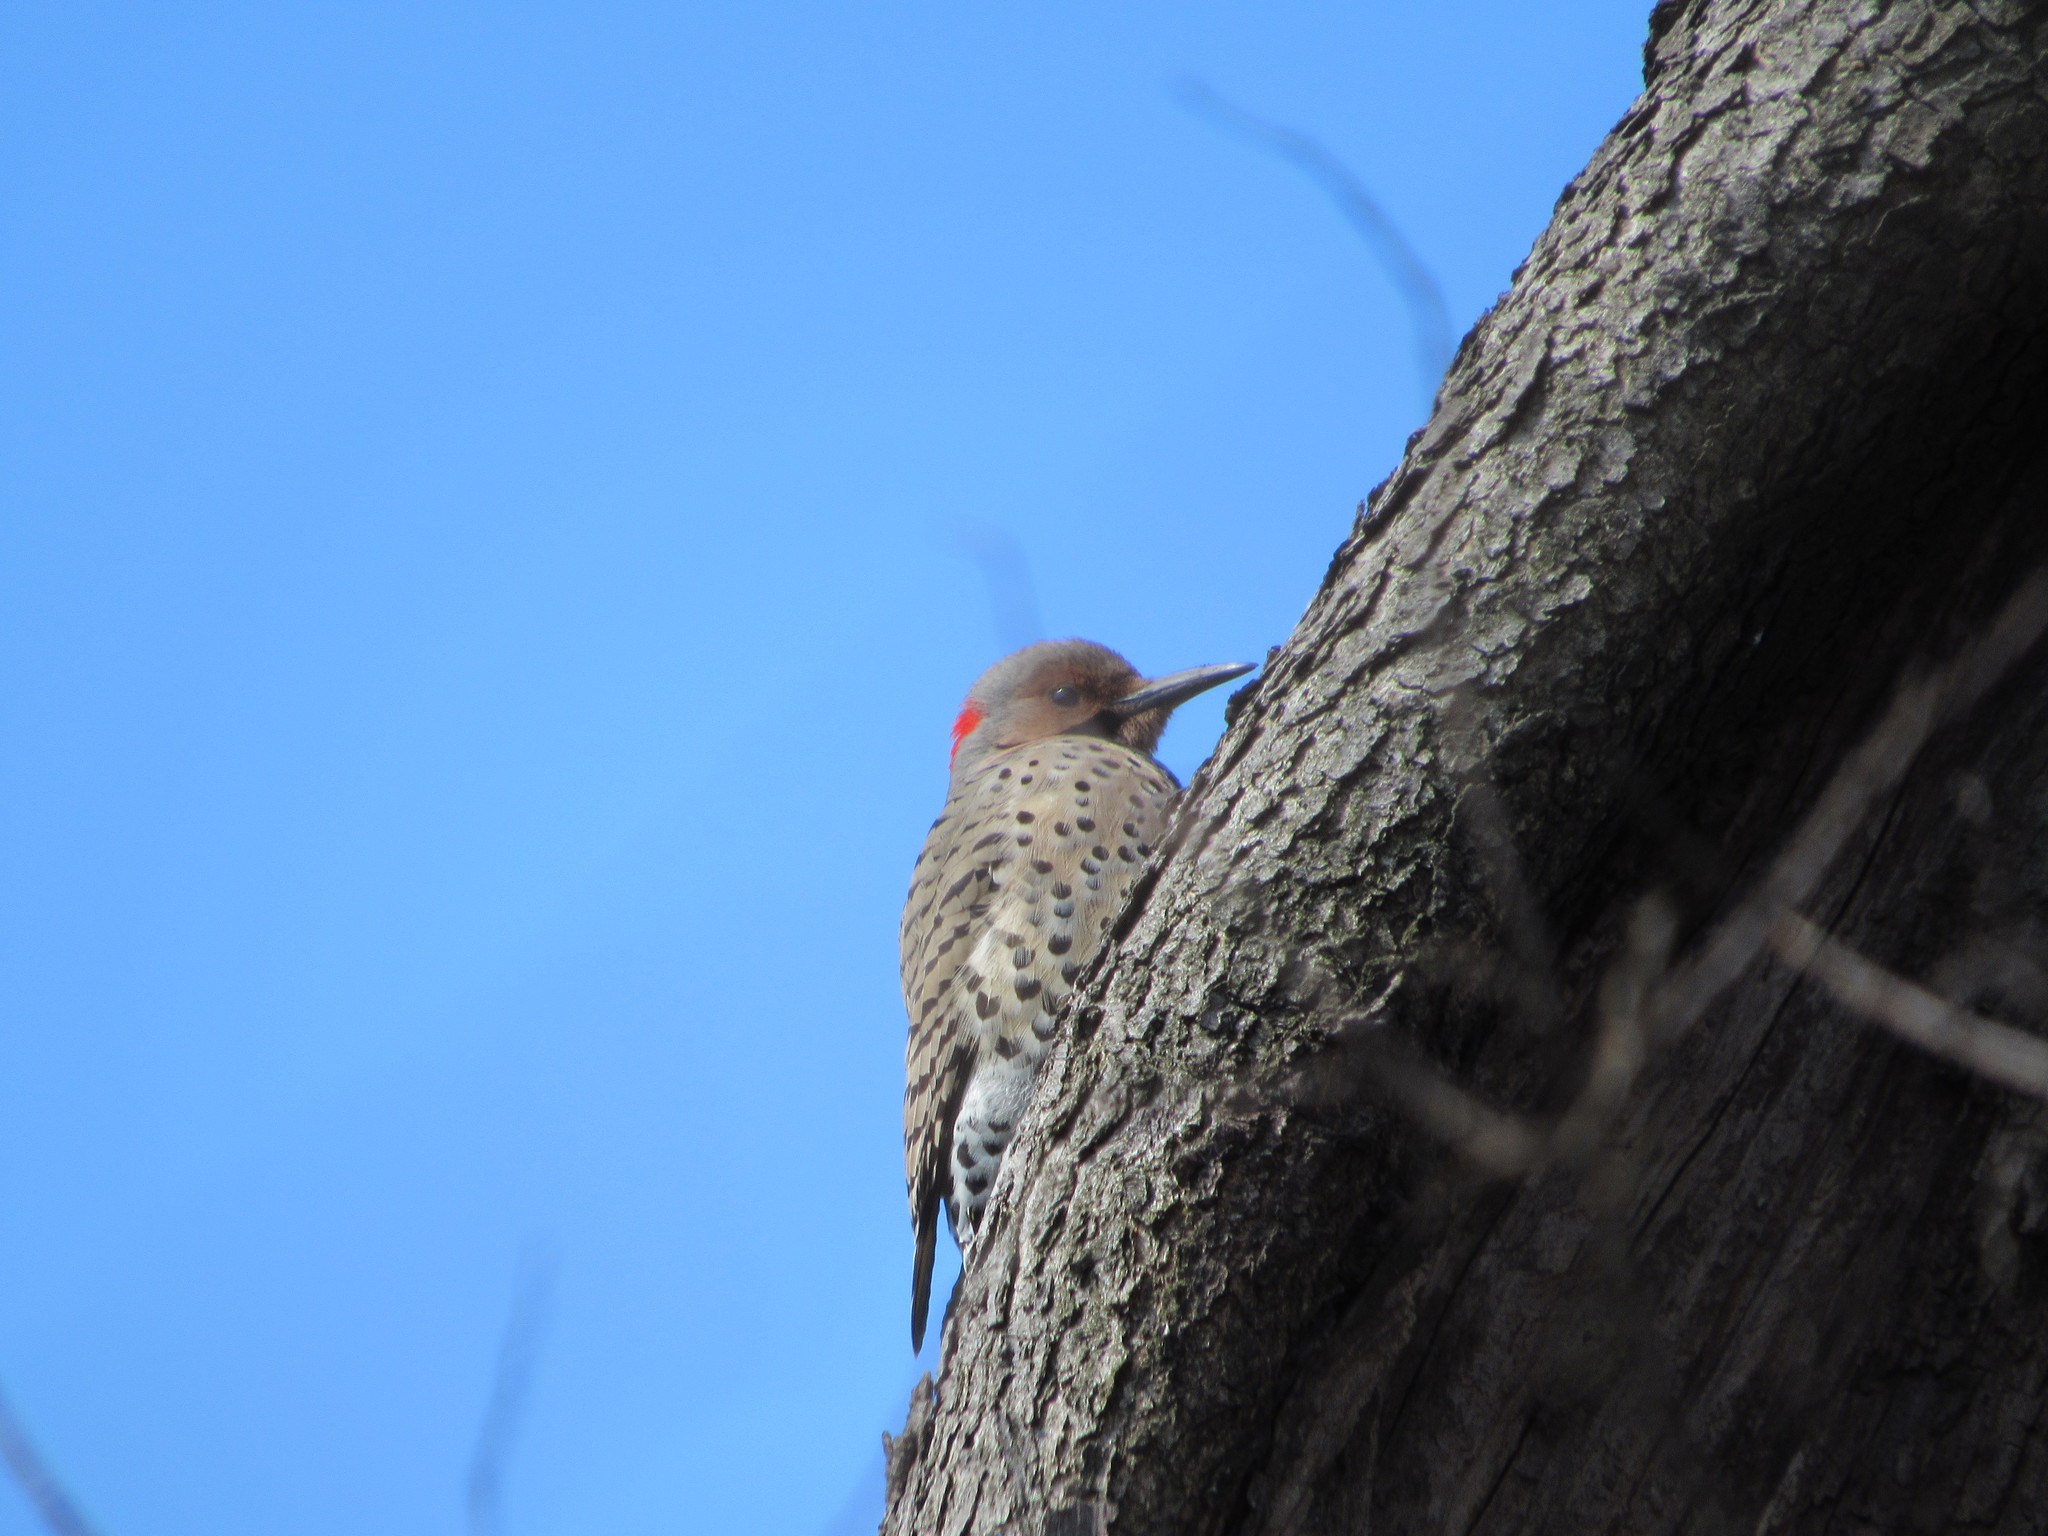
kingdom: Animalia
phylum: Chordata
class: Aves
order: Piciformes
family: Picidae
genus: Colaptes
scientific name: Colaptes auratus
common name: Northern flicker
